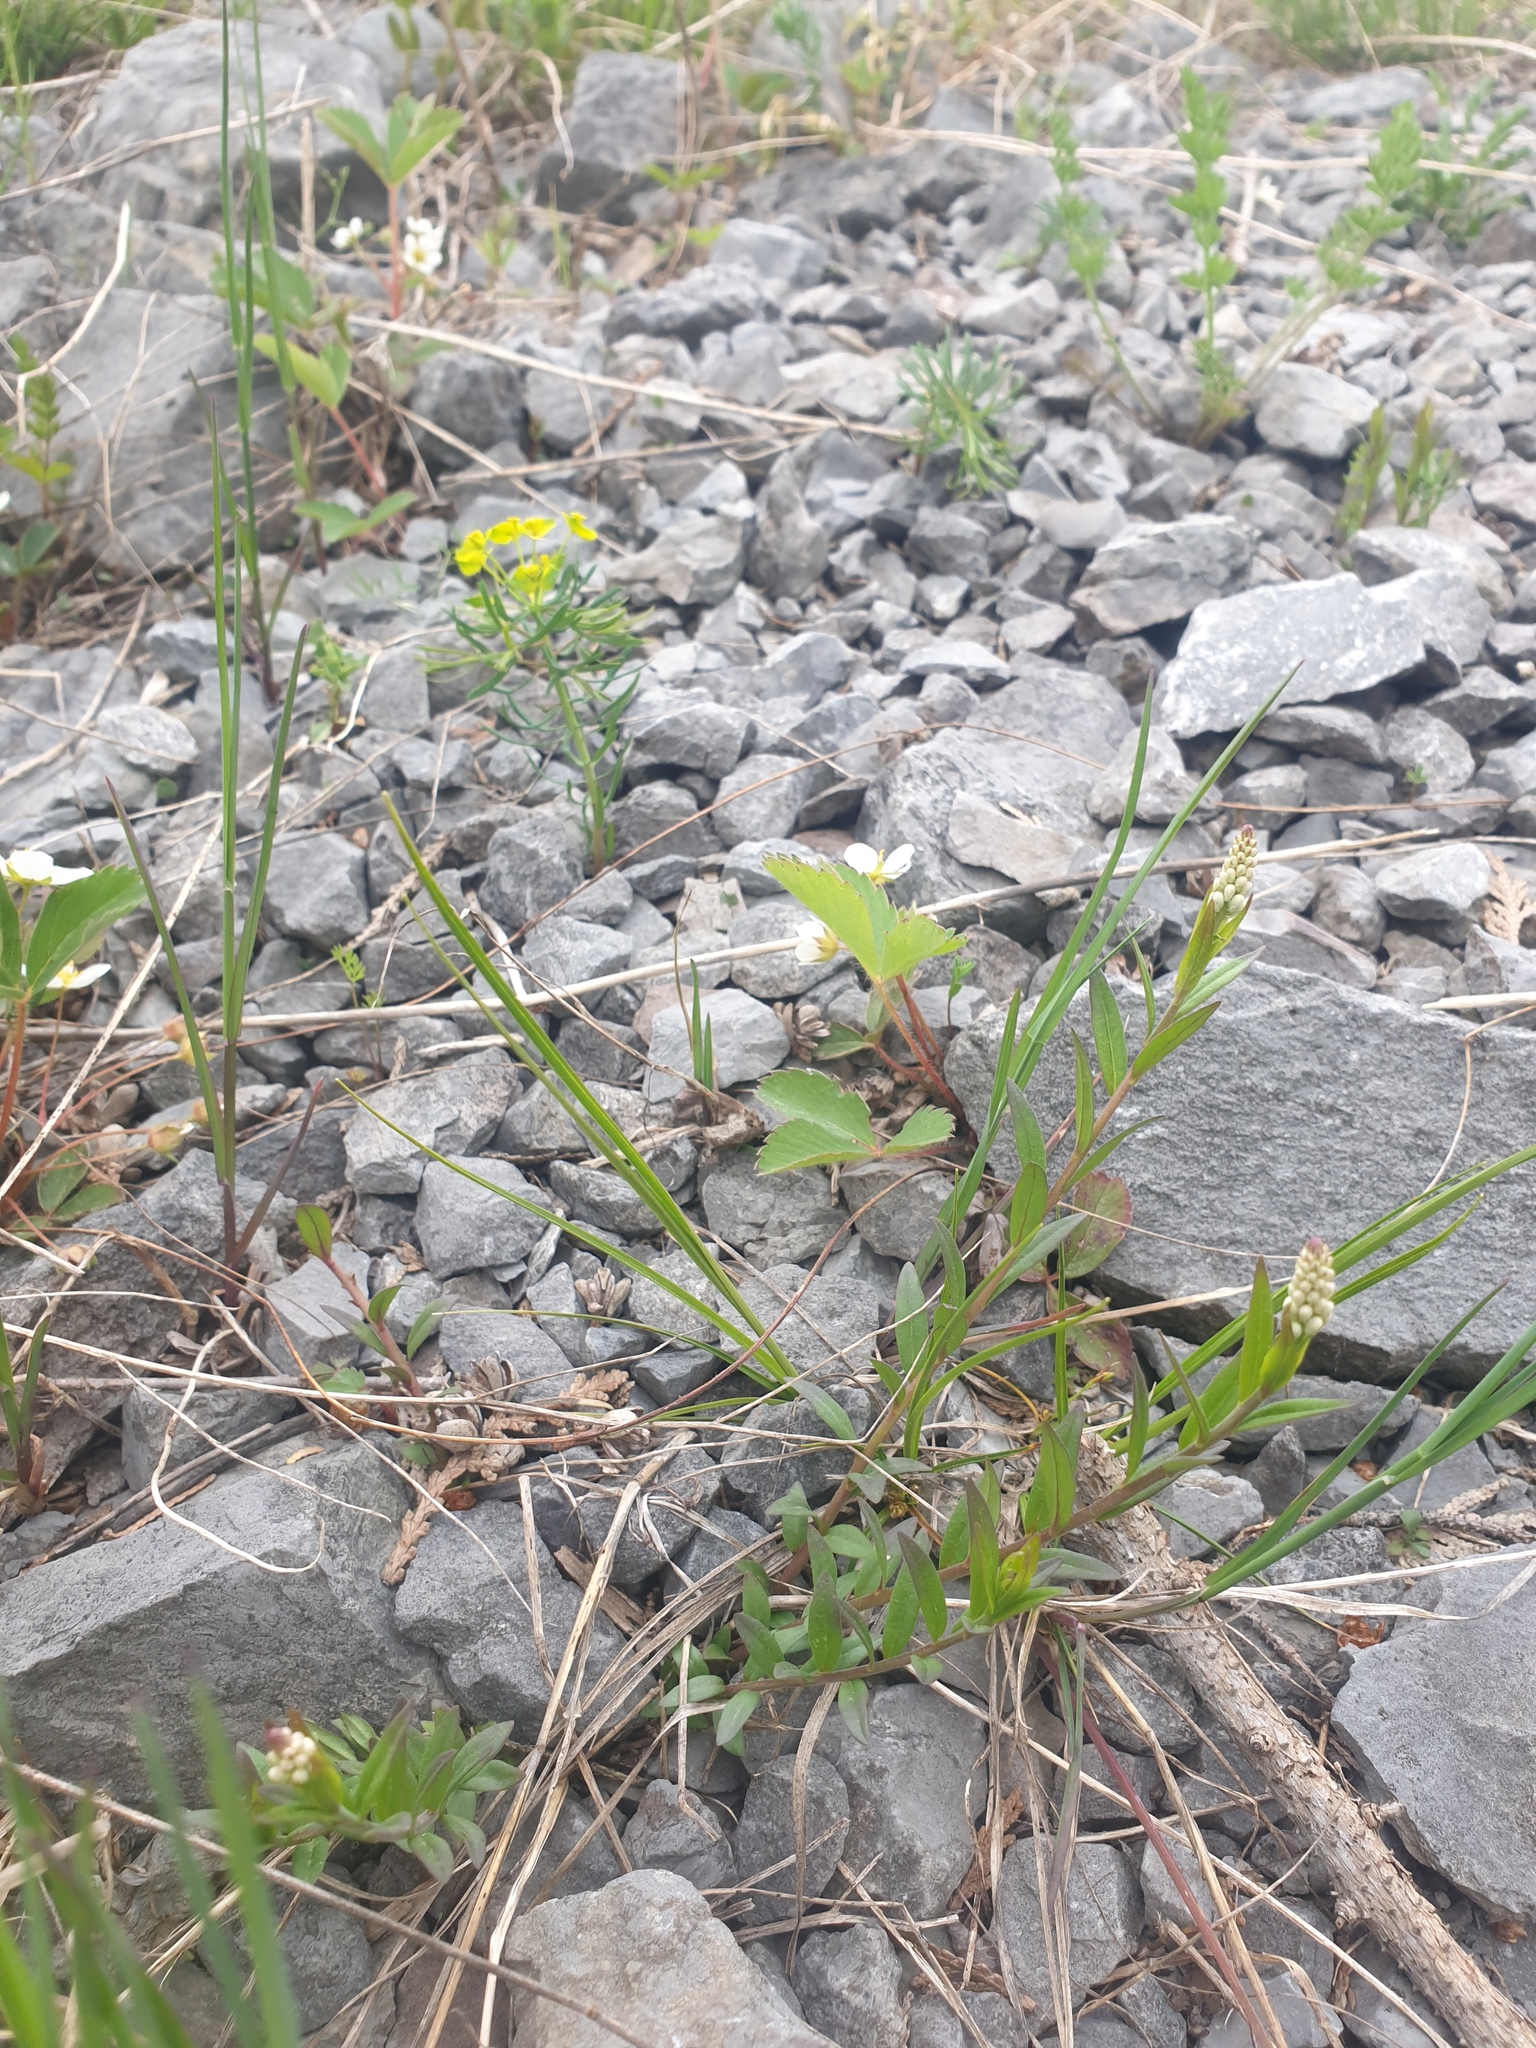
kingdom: Plantae
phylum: Tracheophyta
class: Magnoliopsida
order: Fabales
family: Polygalaceae
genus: Polygala
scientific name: Polygala senega
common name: Seneca snakeroot
